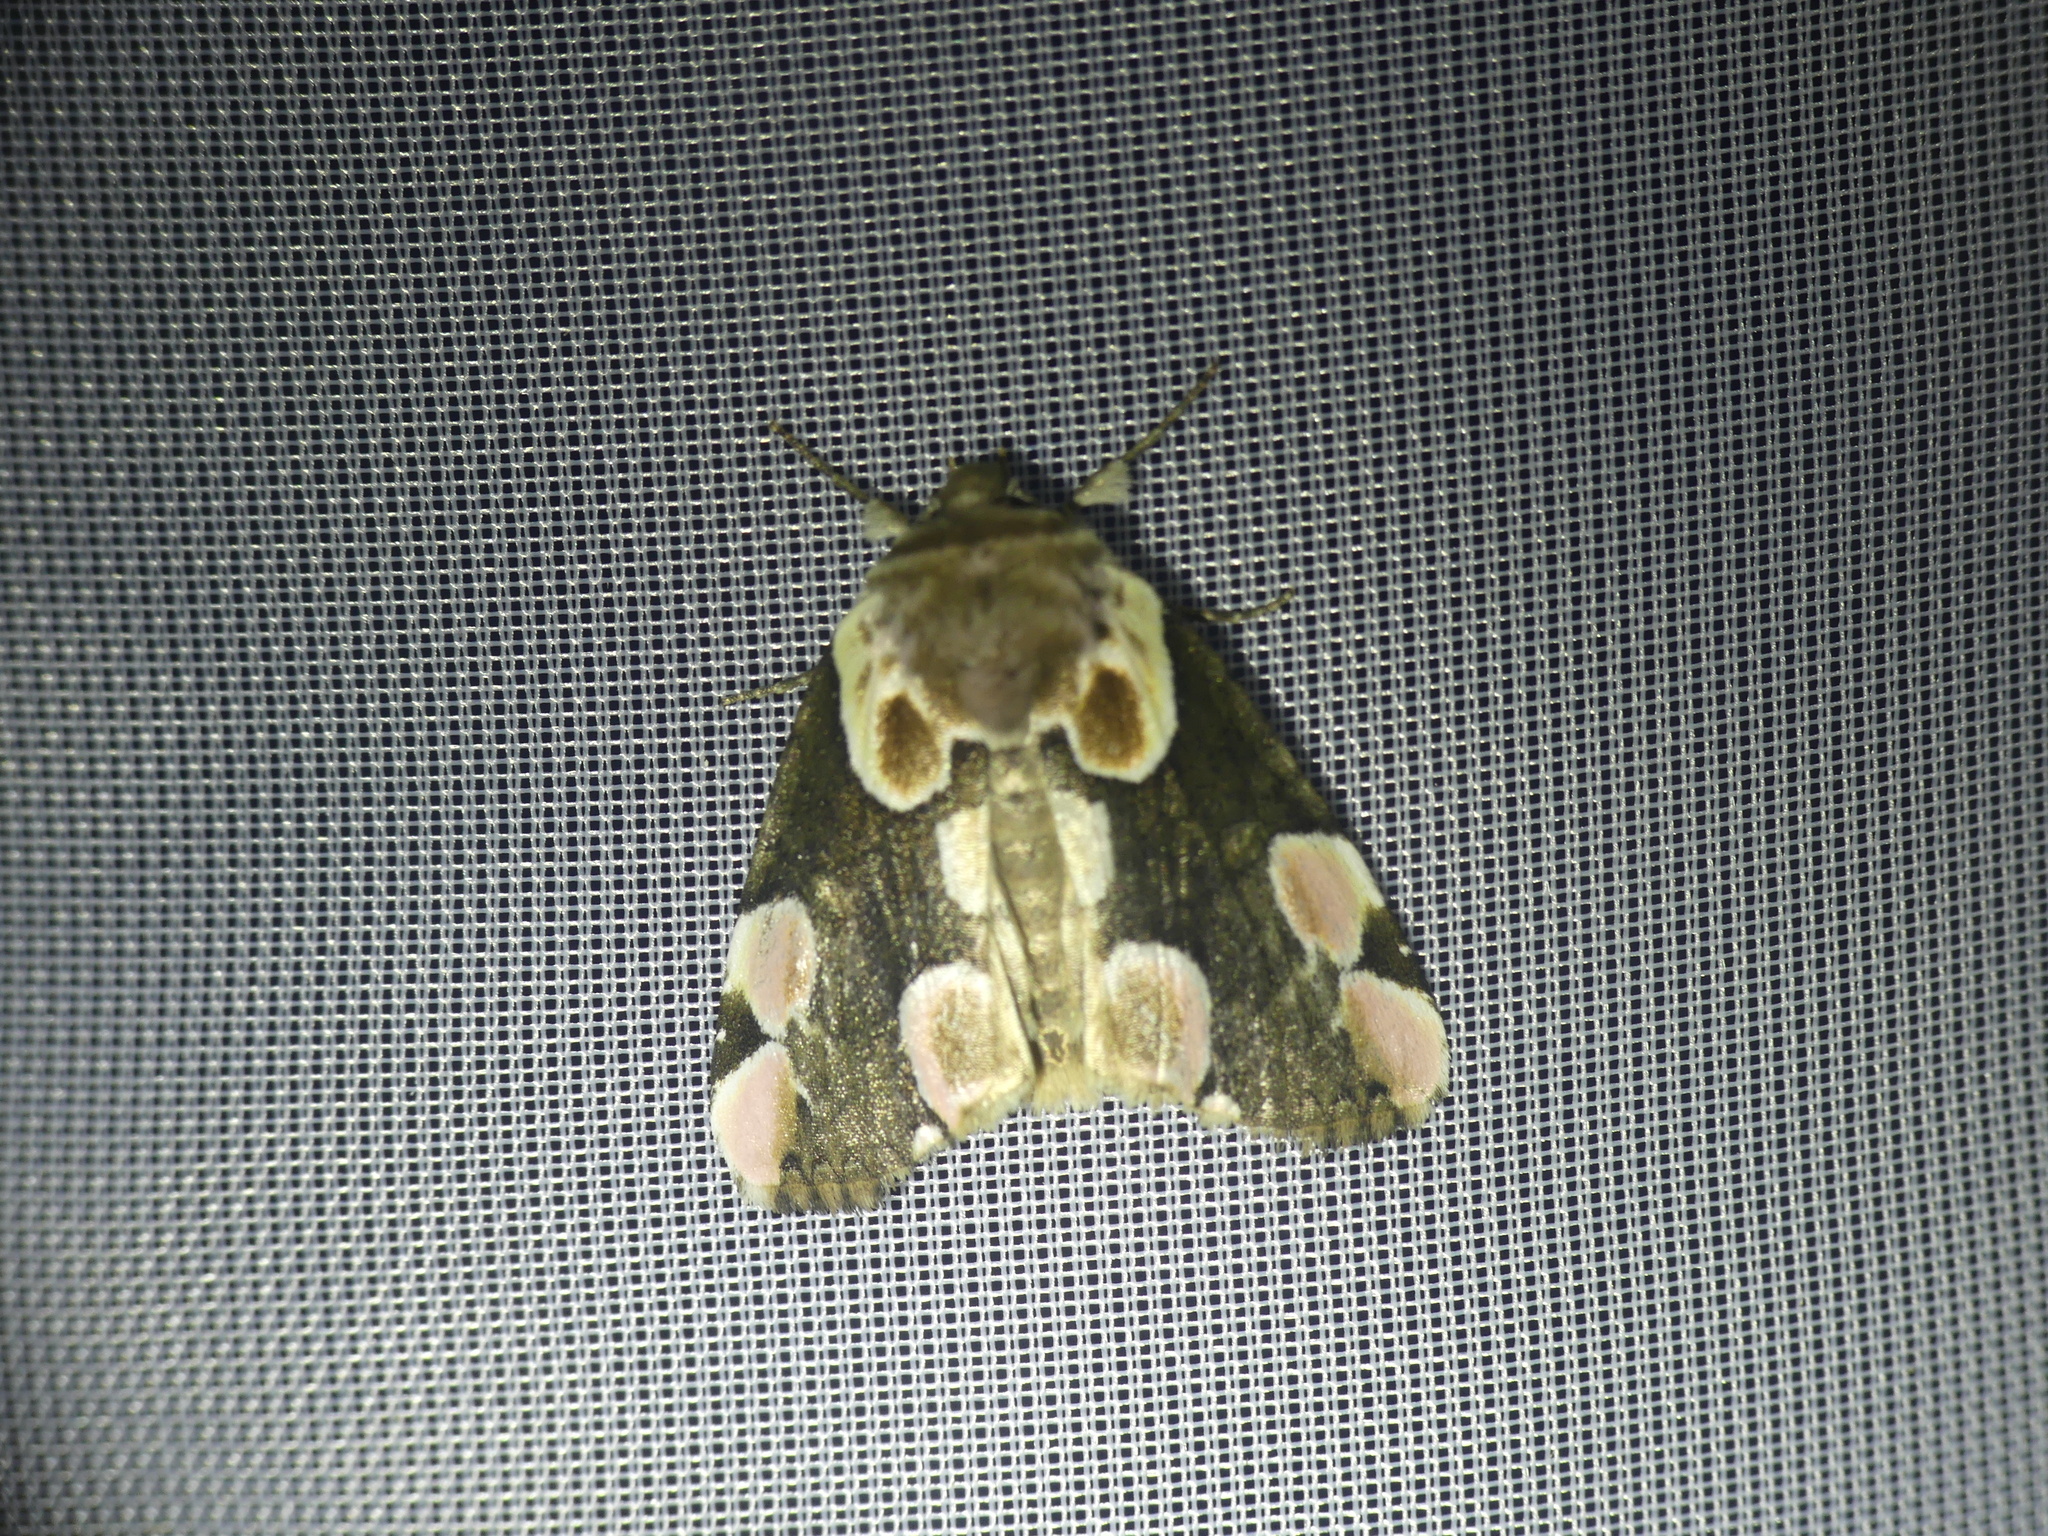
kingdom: Animalia
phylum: Arthropoda
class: Insecta
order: Lepidoptera
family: Drepanidae
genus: Thyatira
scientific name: Thyatira batis
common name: Peach blossom
